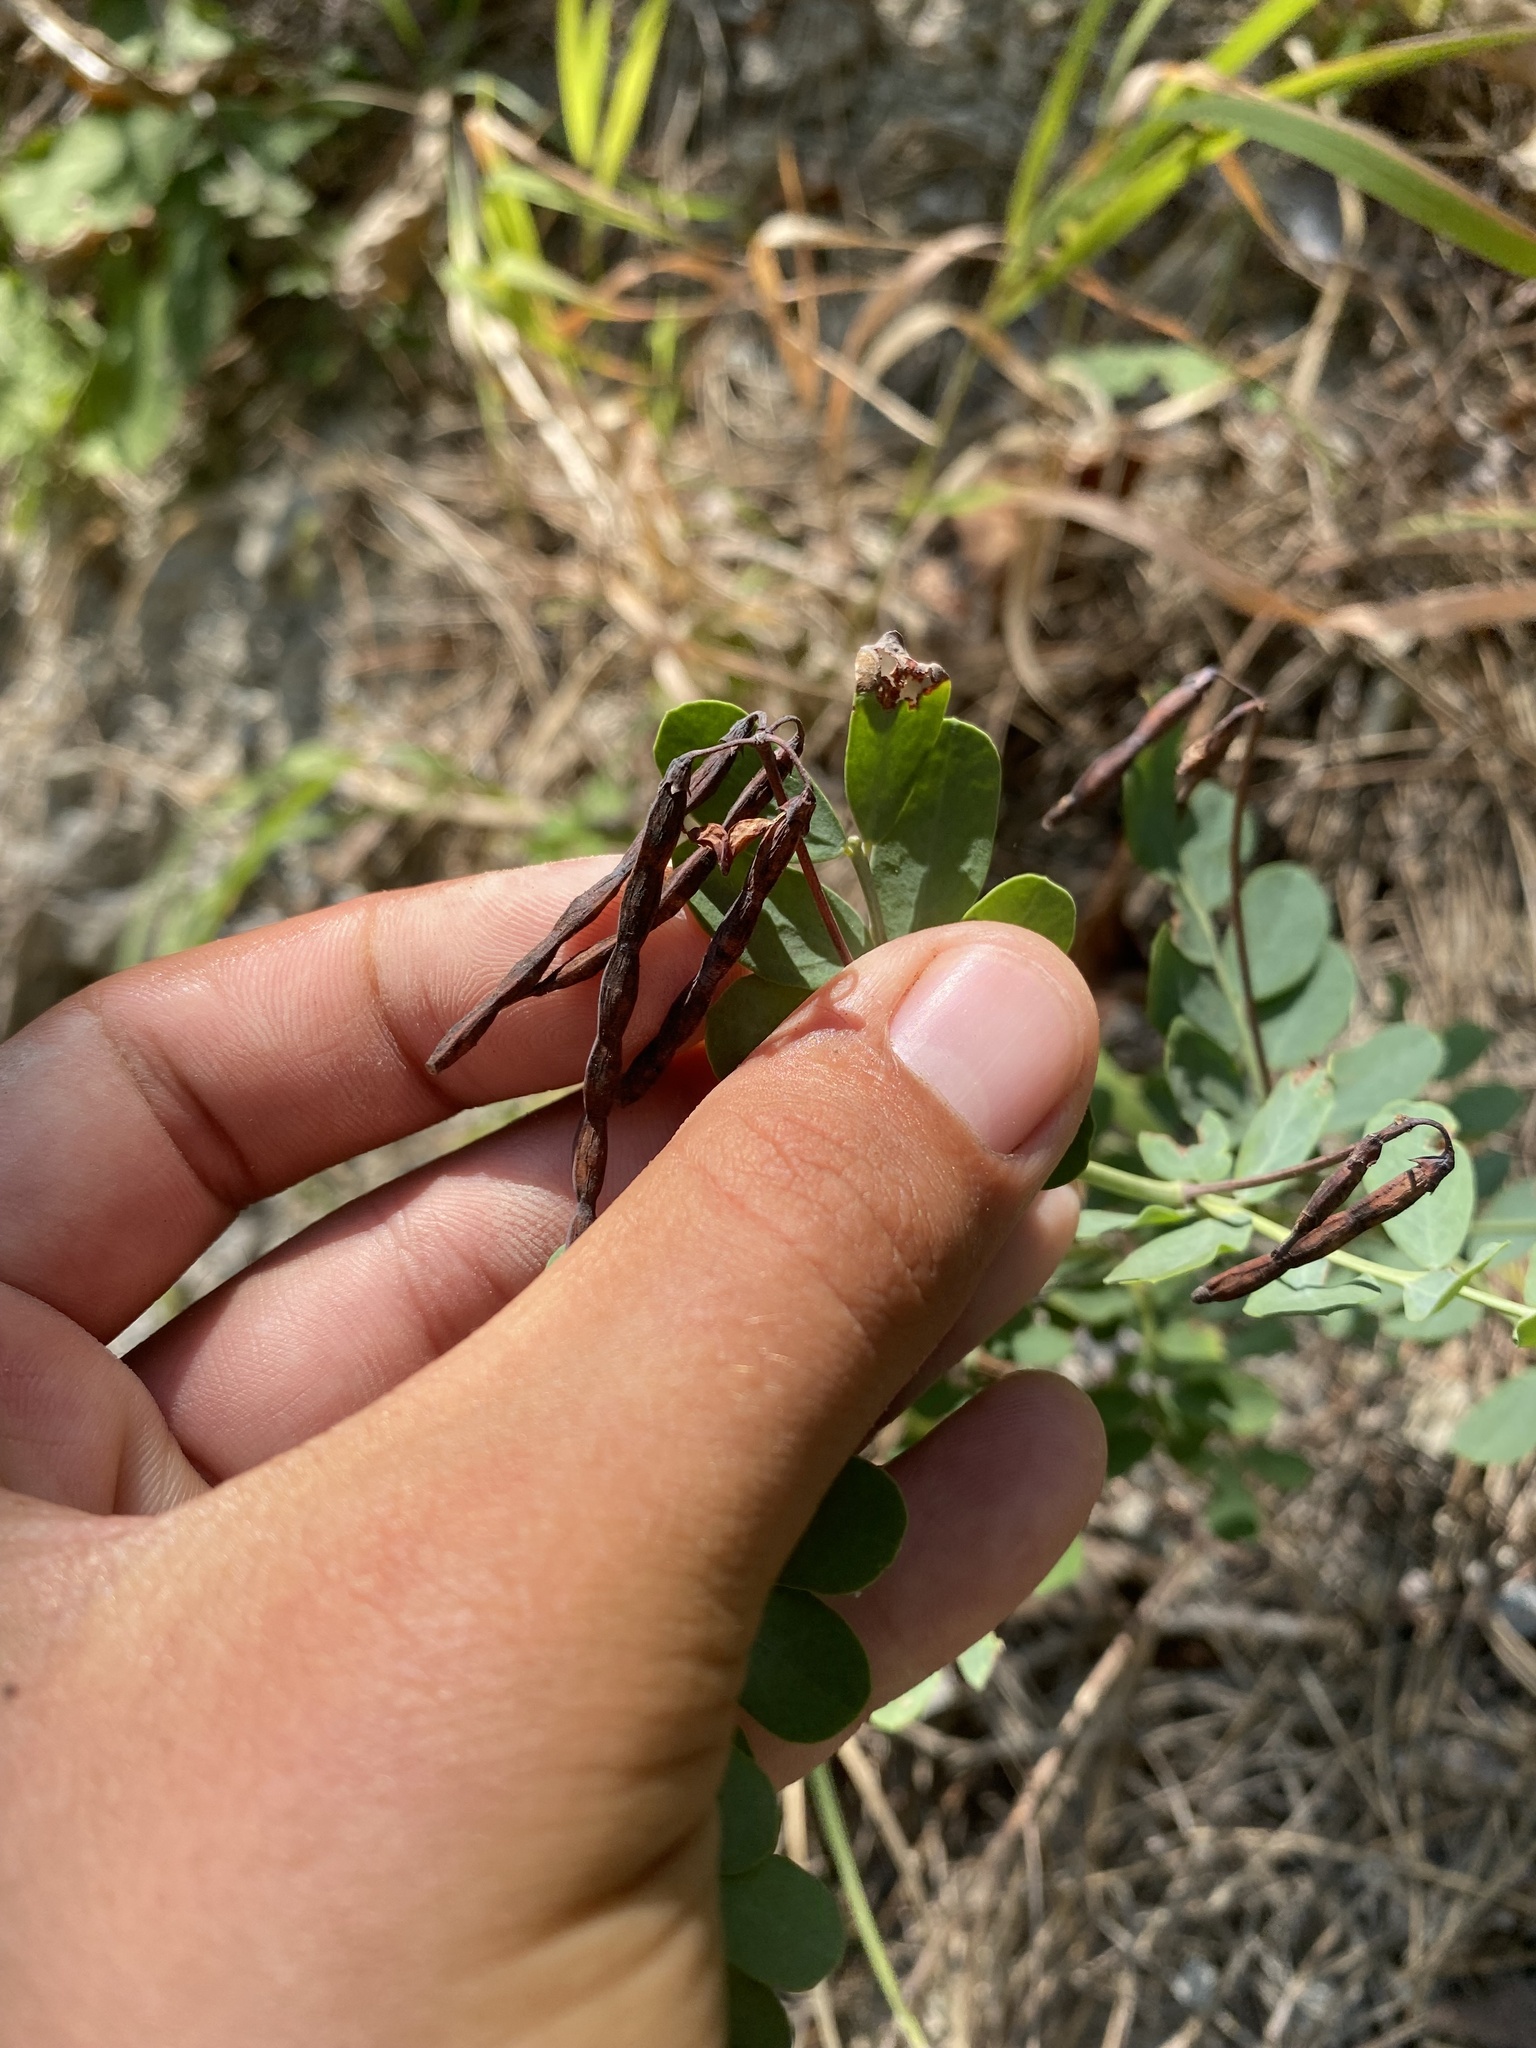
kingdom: Plantae
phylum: Tracheophyta
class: Magnoliopsida
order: Fabales
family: Fabaceae
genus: Coronilla
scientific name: Coronilla coronata
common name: Scorpion-vetch
